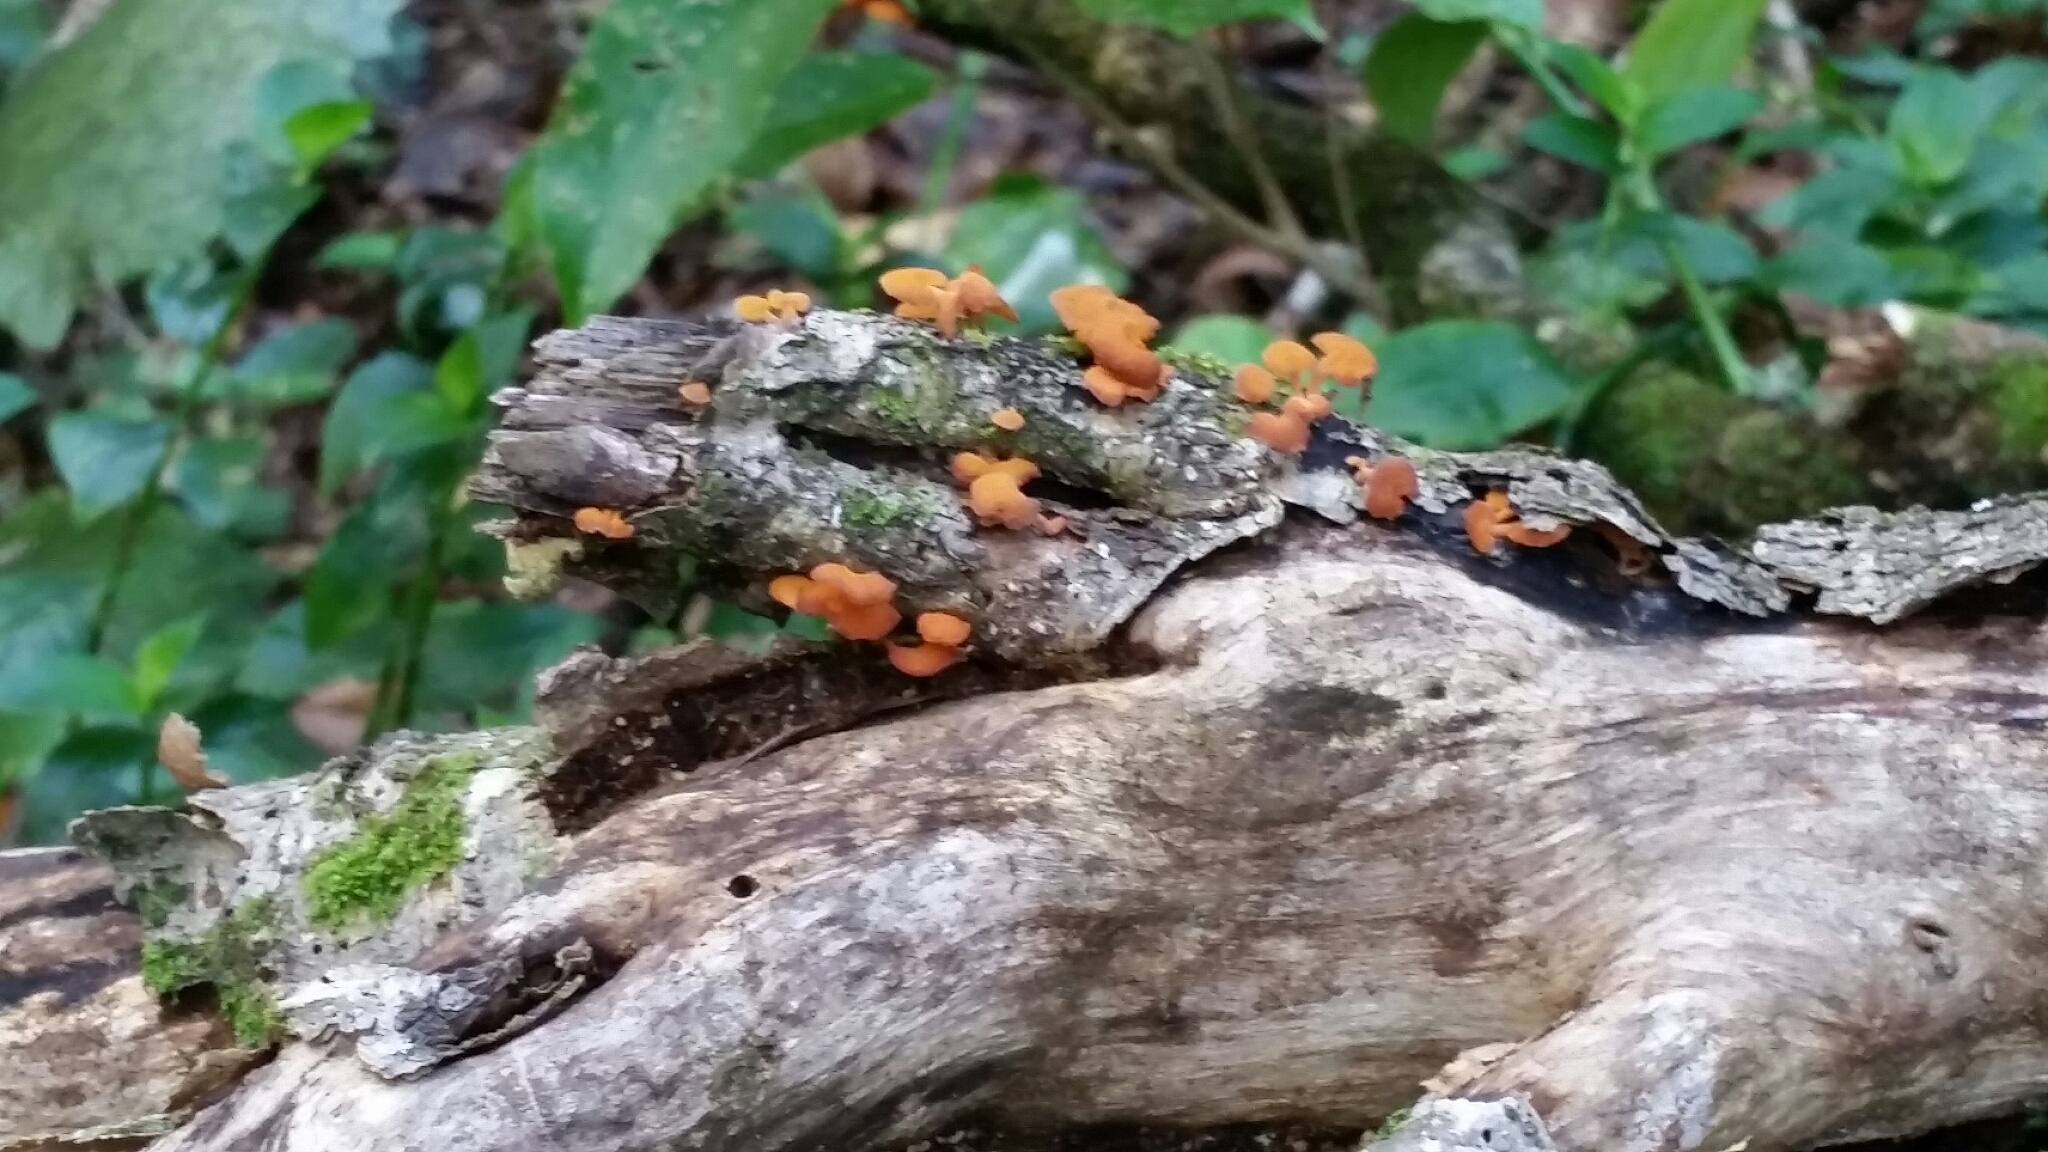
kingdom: Fungi
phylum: Basidiomycota
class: Agaricomycetes
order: Agaricales
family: Mycenaceae
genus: Favolaschia
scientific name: Favolaschia claudopus
